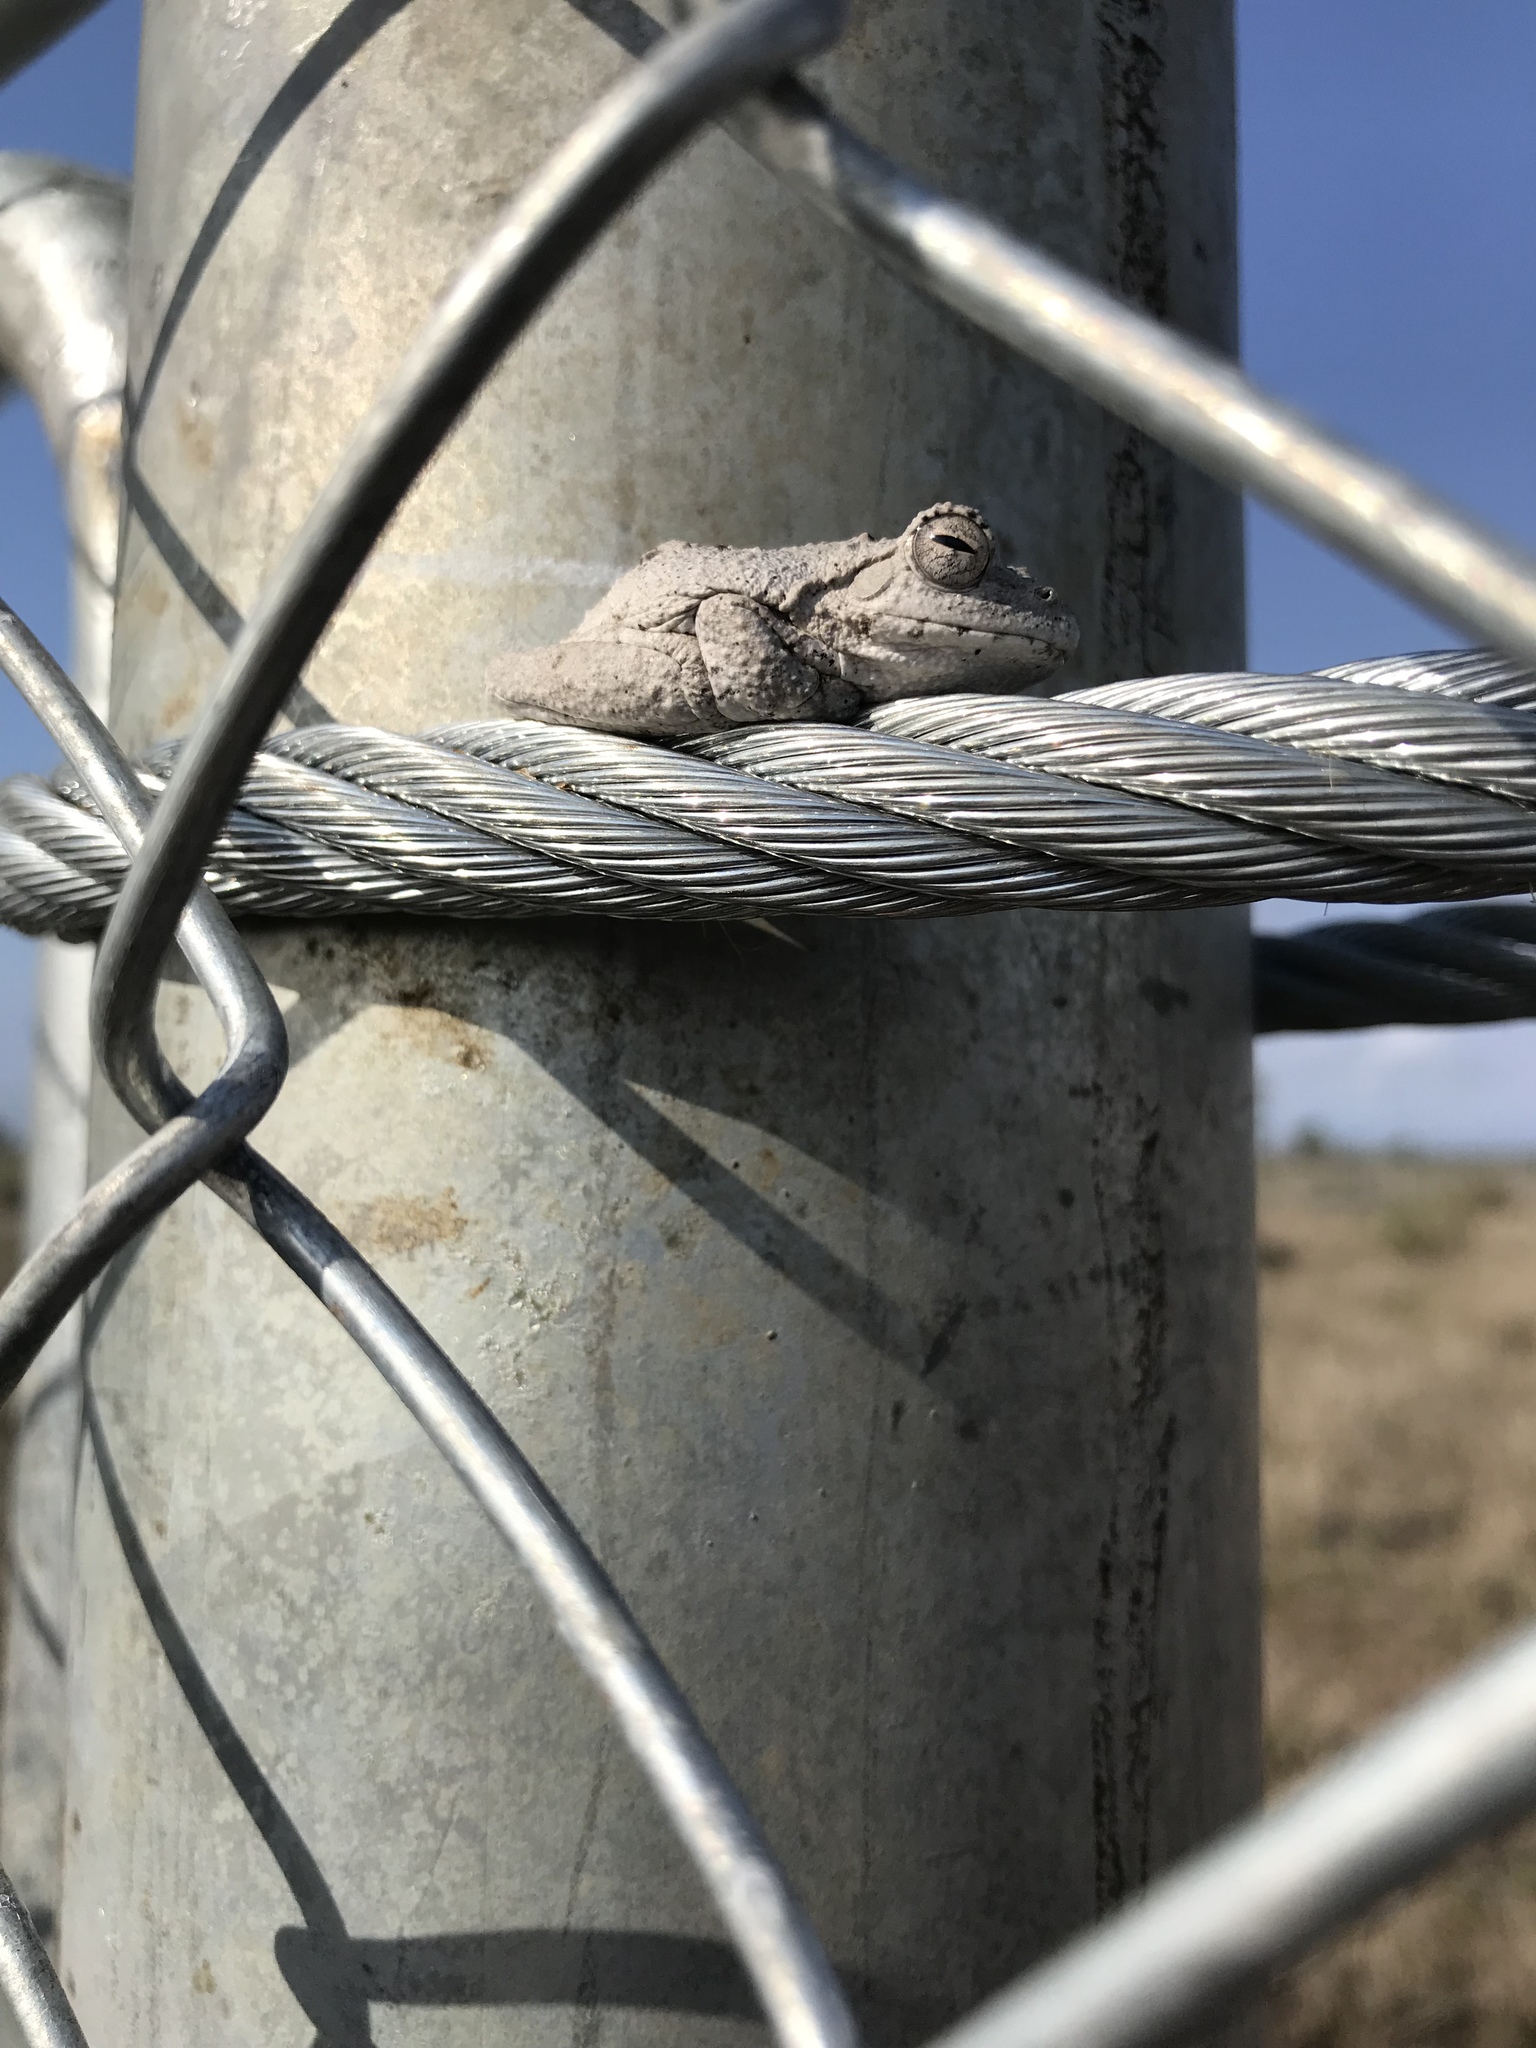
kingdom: Animalia
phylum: Chordata
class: Amphibia
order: Anura
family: Rhacophoridae
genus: Chiromantis
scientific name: Chiromantis xerampelina
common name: African gray treefrog
